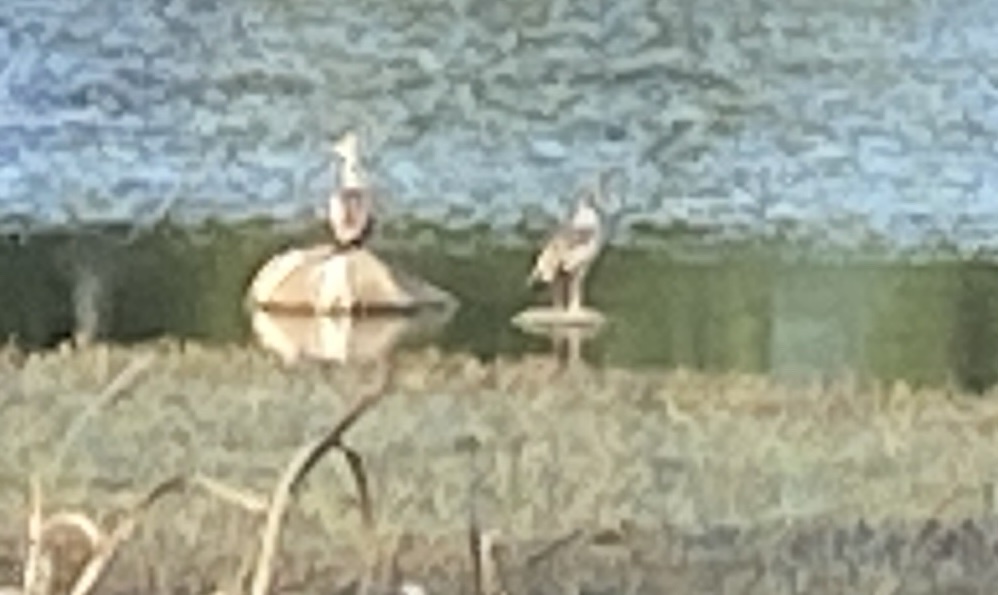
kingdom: Animalia
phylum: Chordata
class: Aves
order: Anseriformes
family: Anatidae
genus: Alopochen
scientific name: Alopochen aegyptiaca
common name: Egyptian goose
